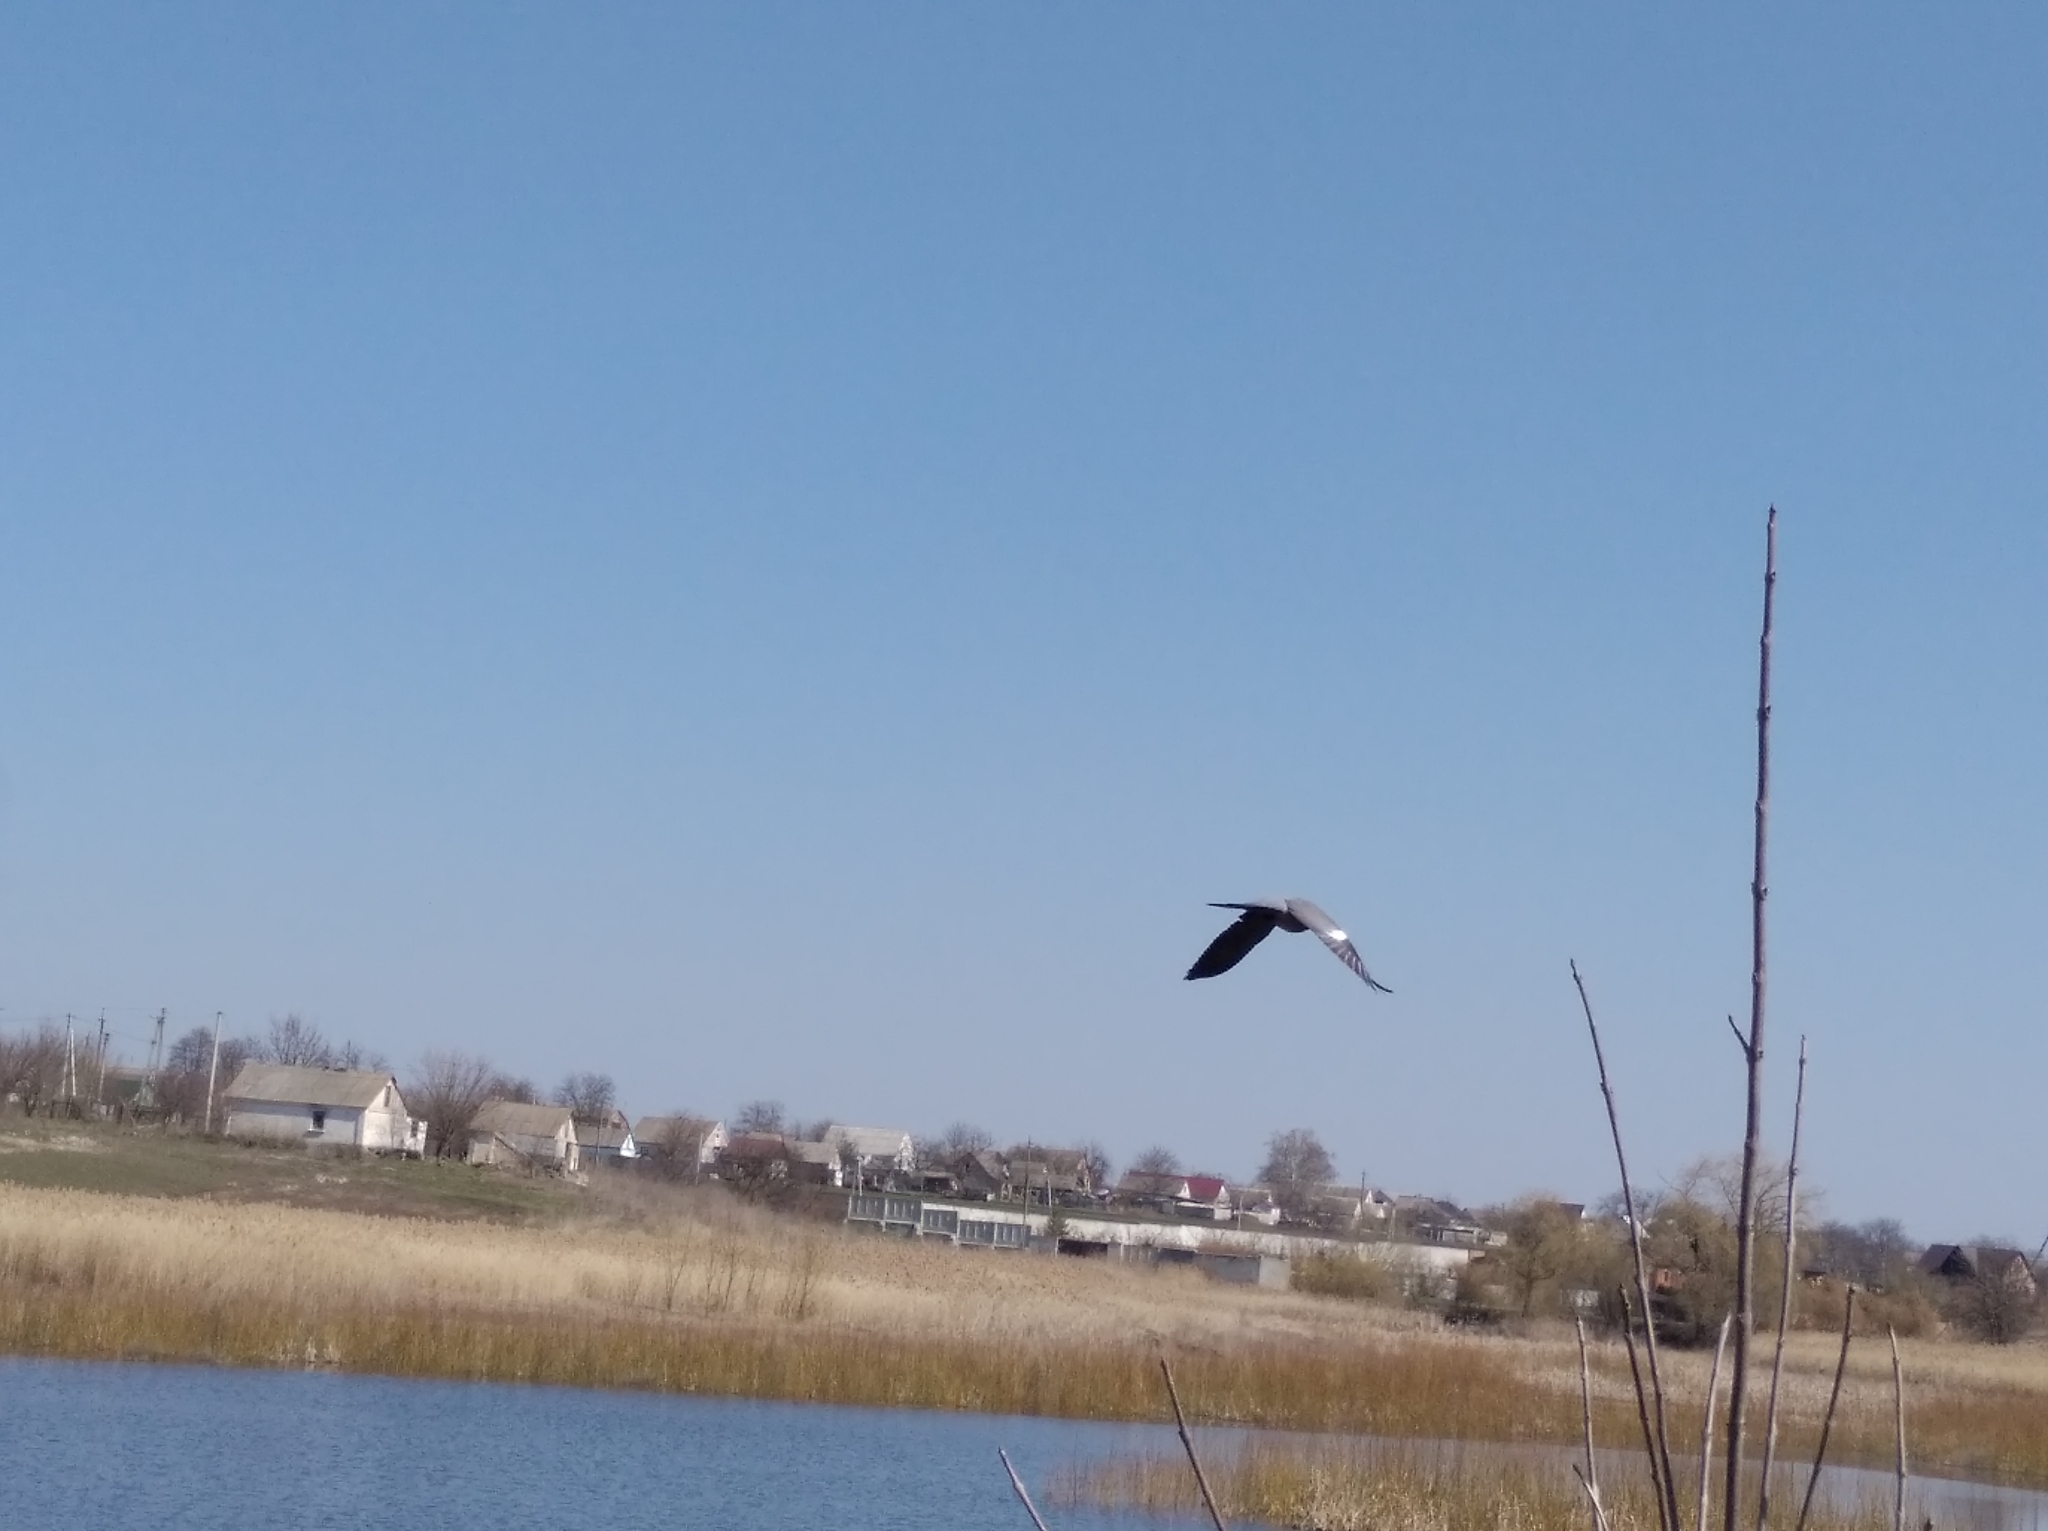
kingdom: Animalia
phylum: Chordata
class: Aves
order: Columbiformes
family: Columbidae
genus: Columba
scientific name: Columba palumbus
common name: Common wood pigeon
